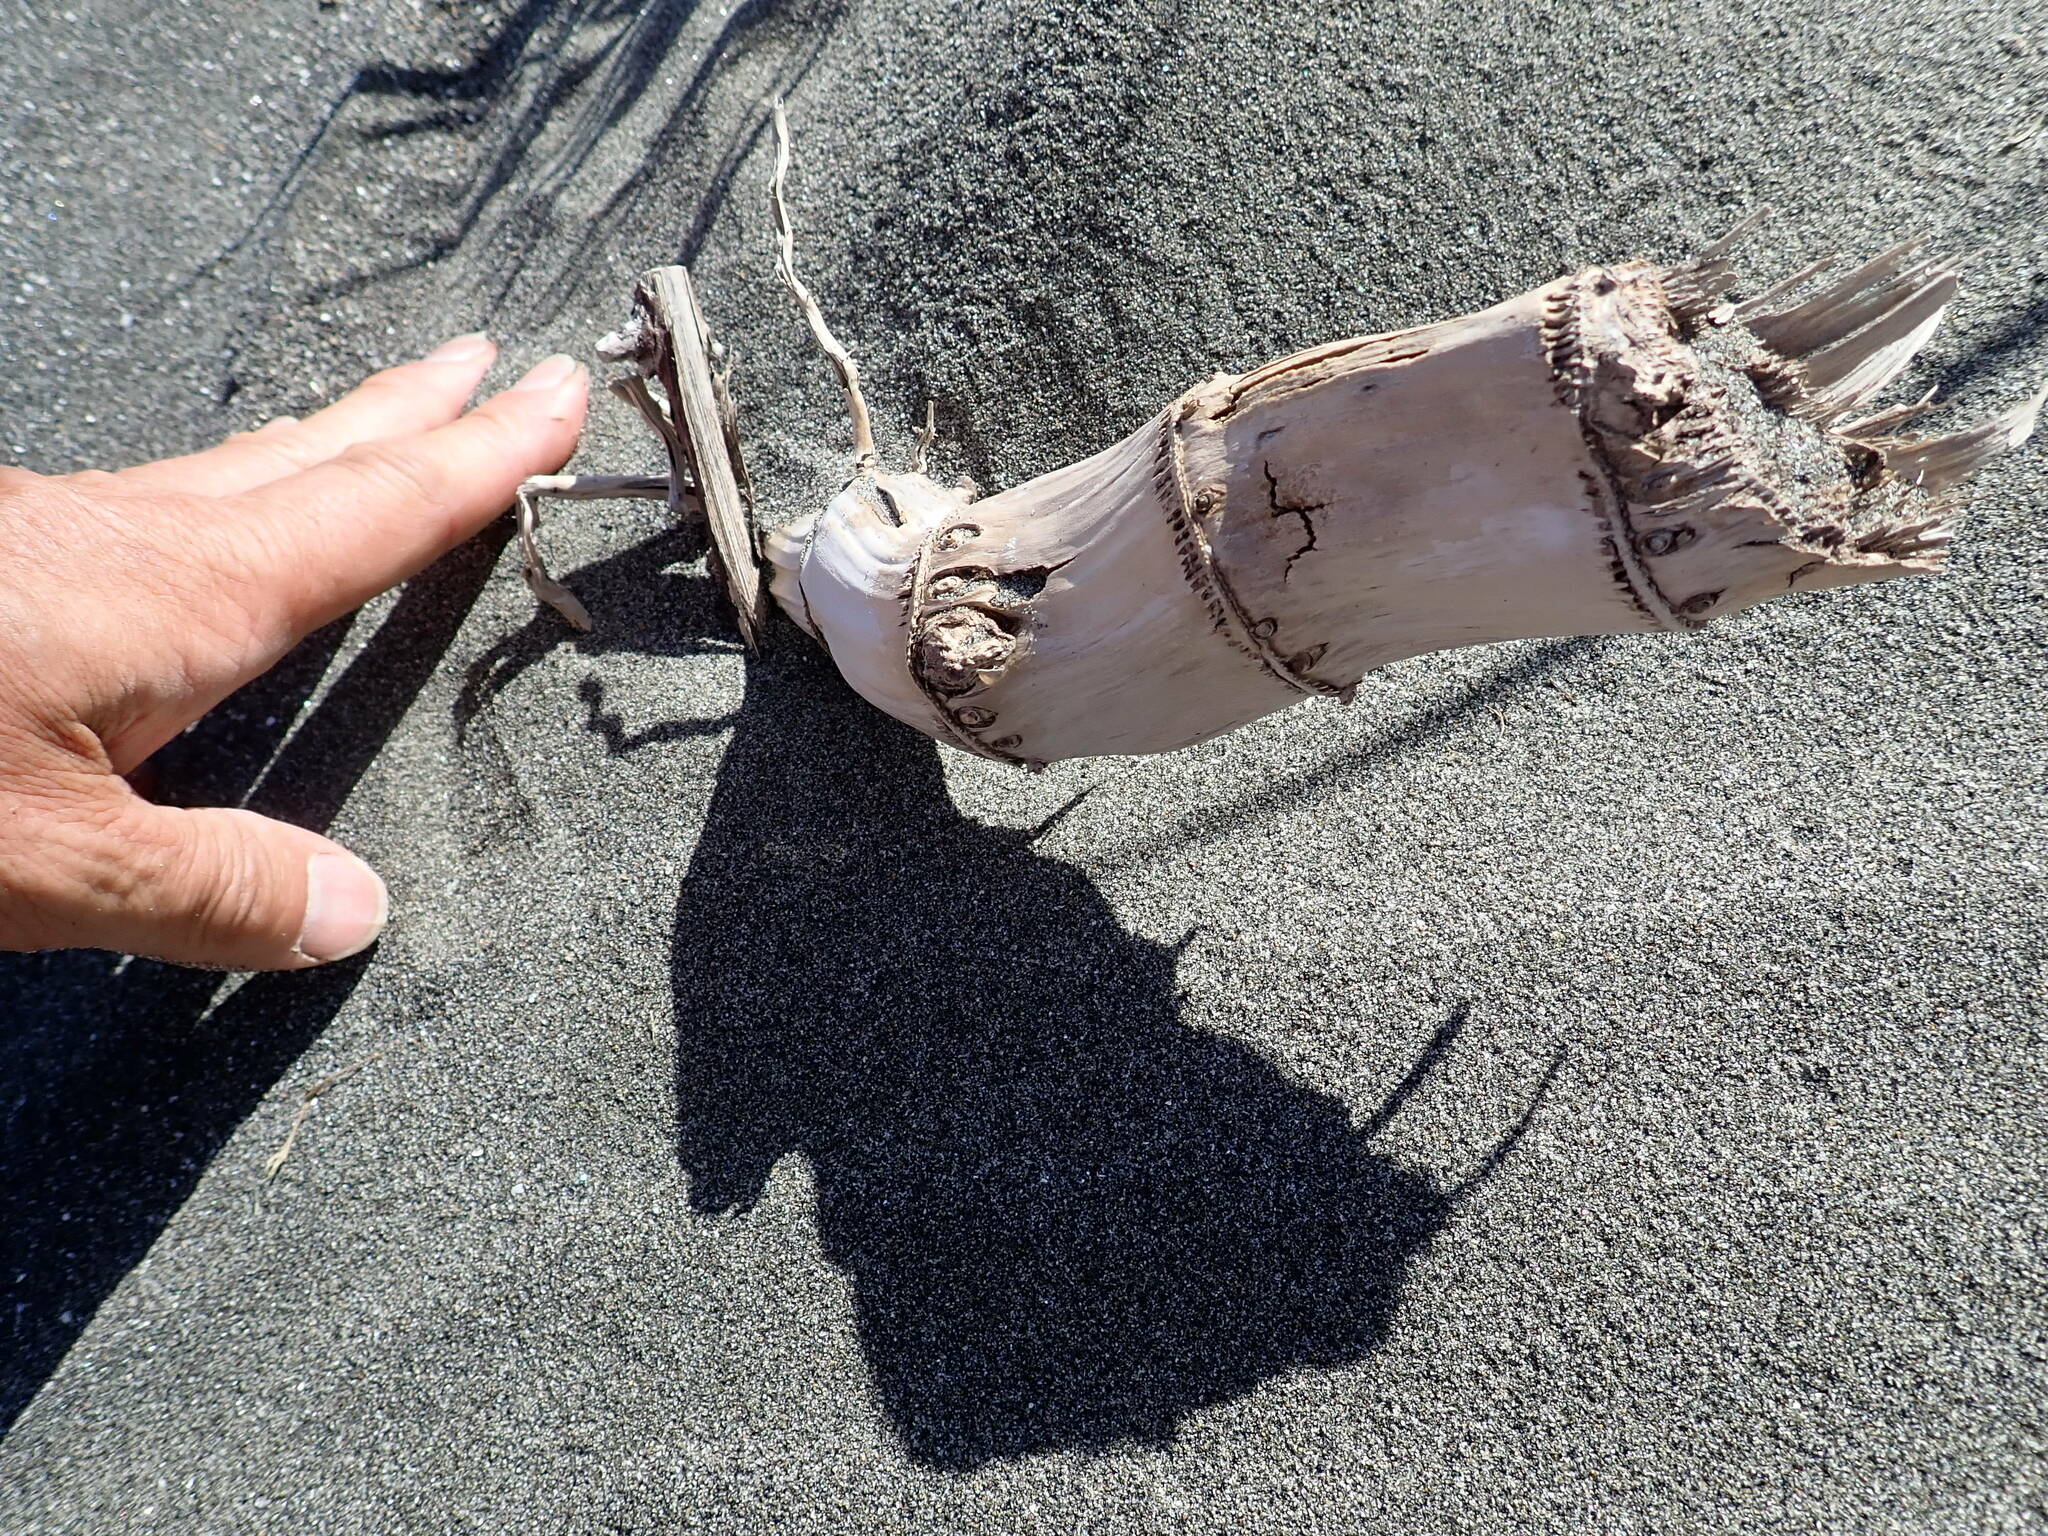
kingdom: Plantae
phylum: Tracheophyta
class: Liliopsida
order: Poales
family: Poaceae
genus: Phragmites
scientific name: Phragmites karka
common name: Tropical reed
